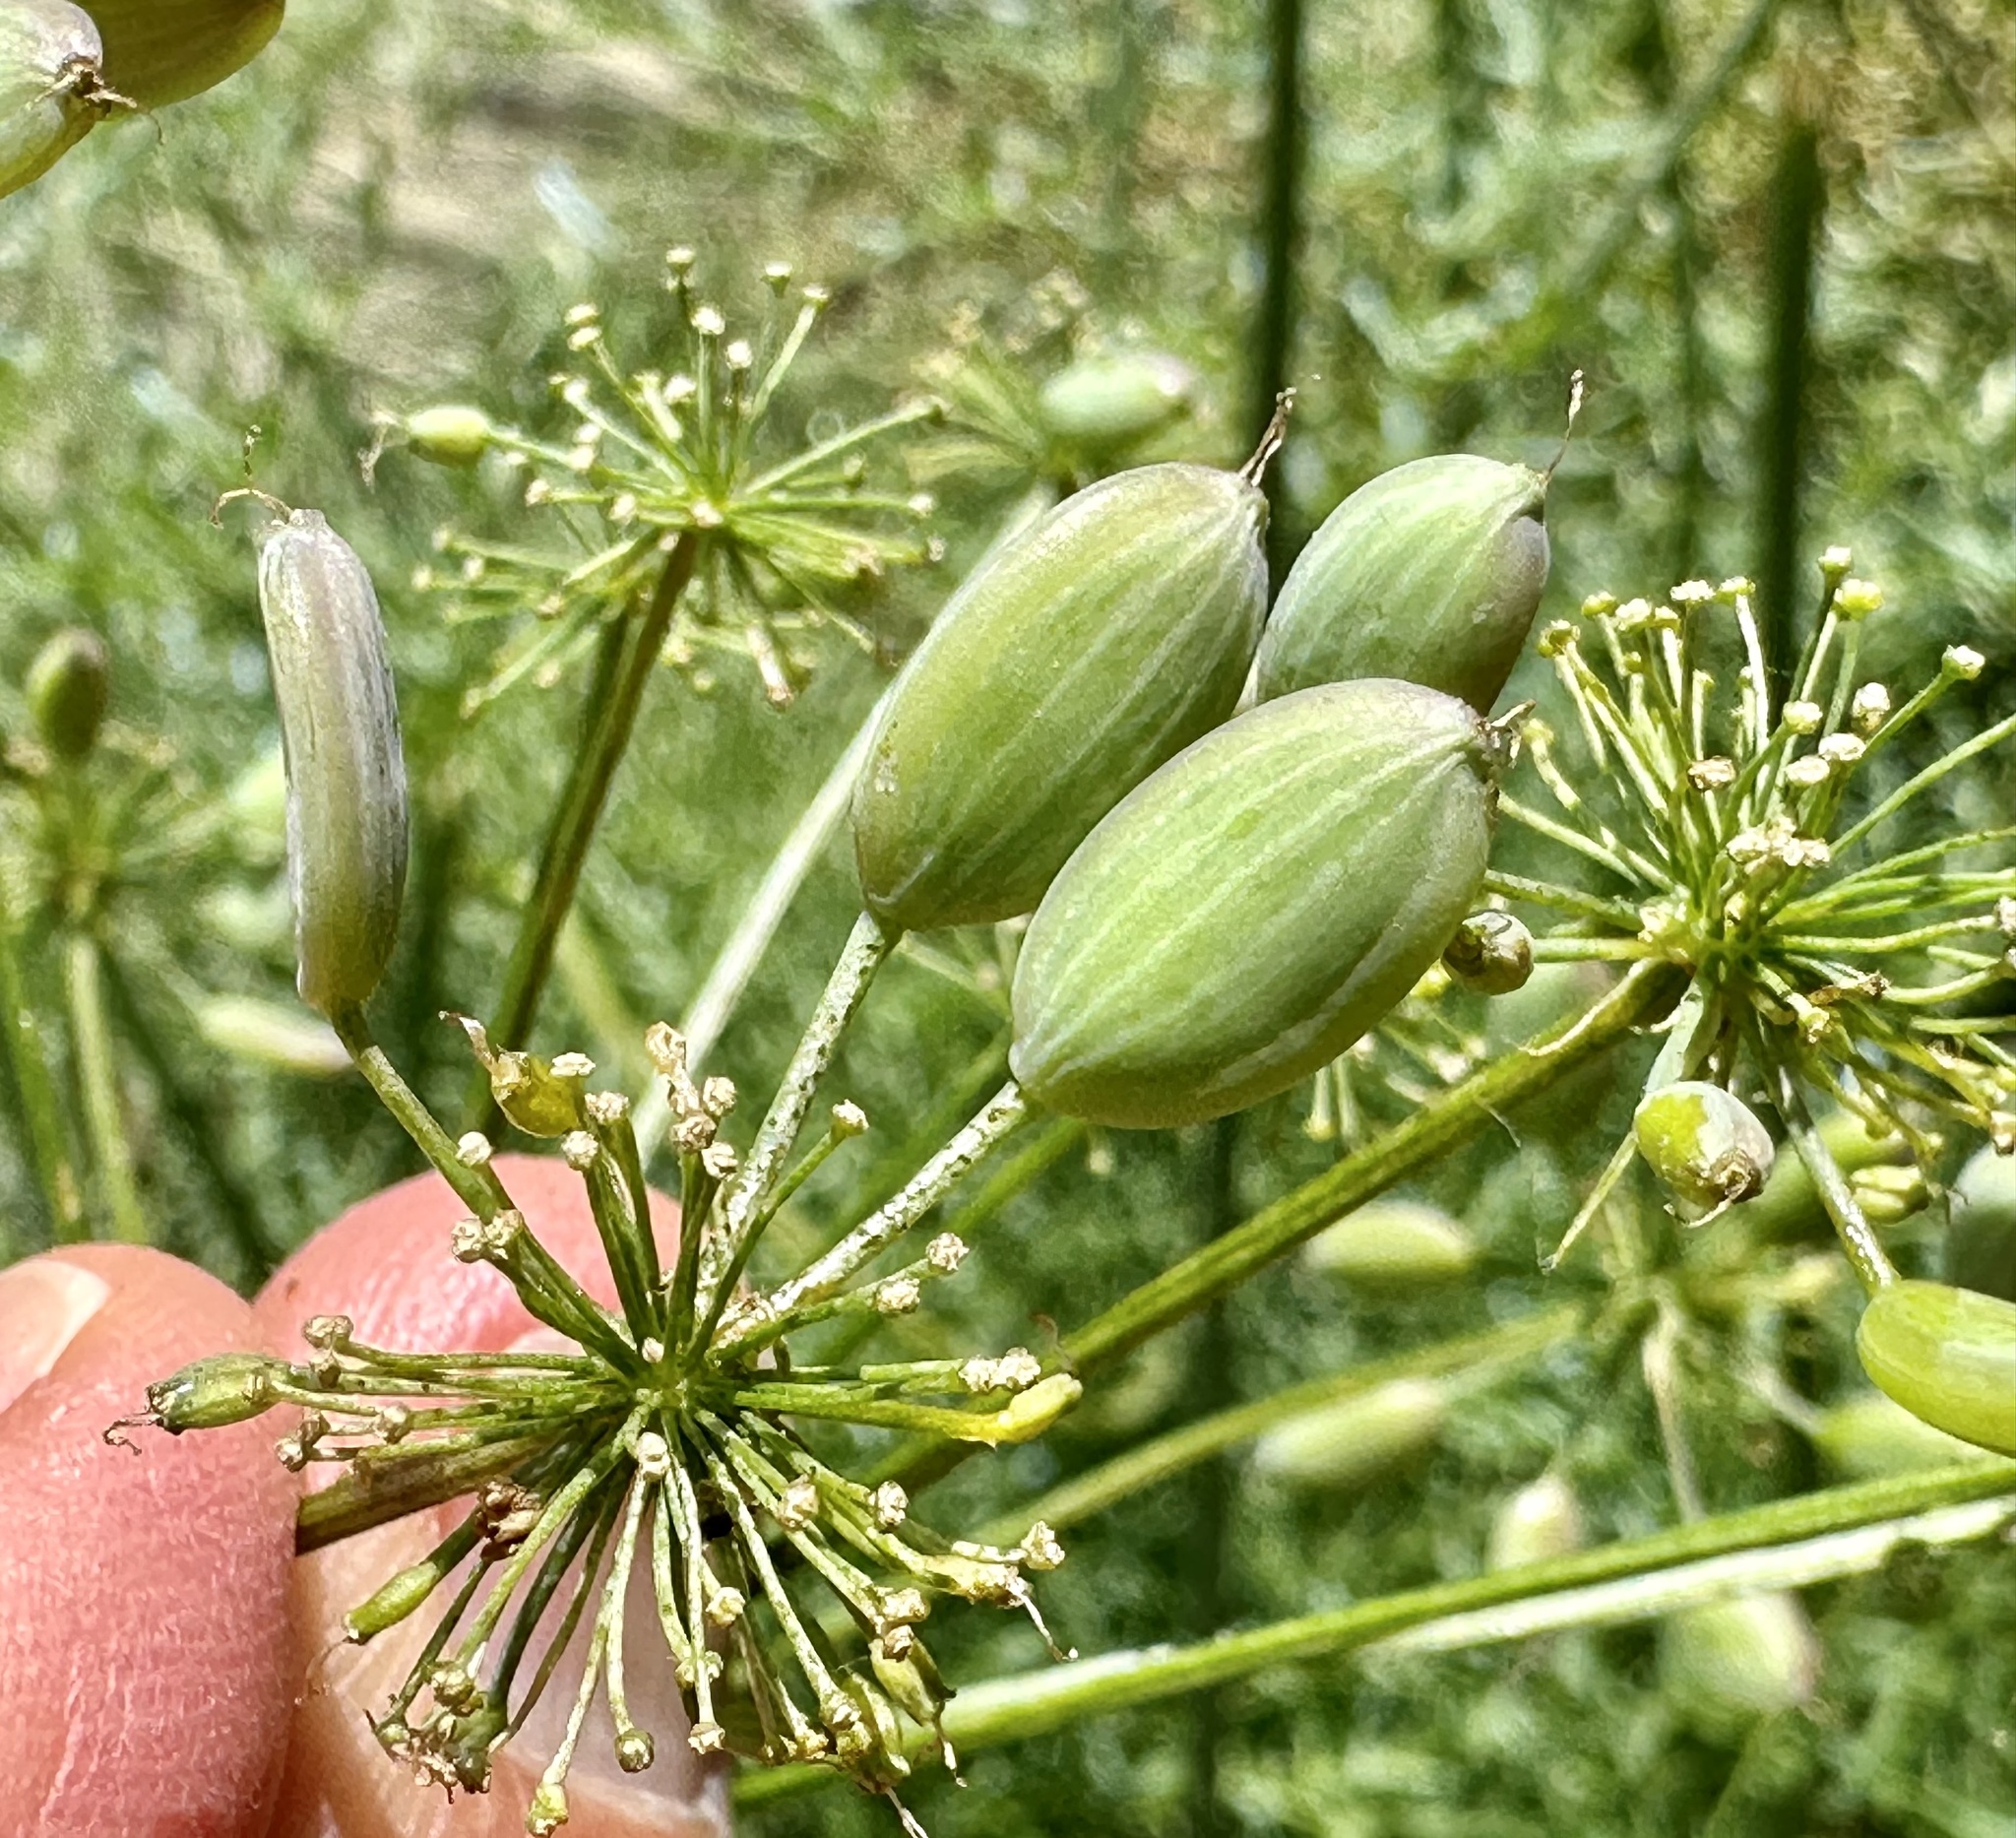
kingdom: Plantae
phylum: Tracheophyta
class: Magnoliopsida
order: Apiales
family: Apiaceae
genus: Lomatium
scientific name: Lomatium multifidum
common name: Carrot-leaved biscuitroot
